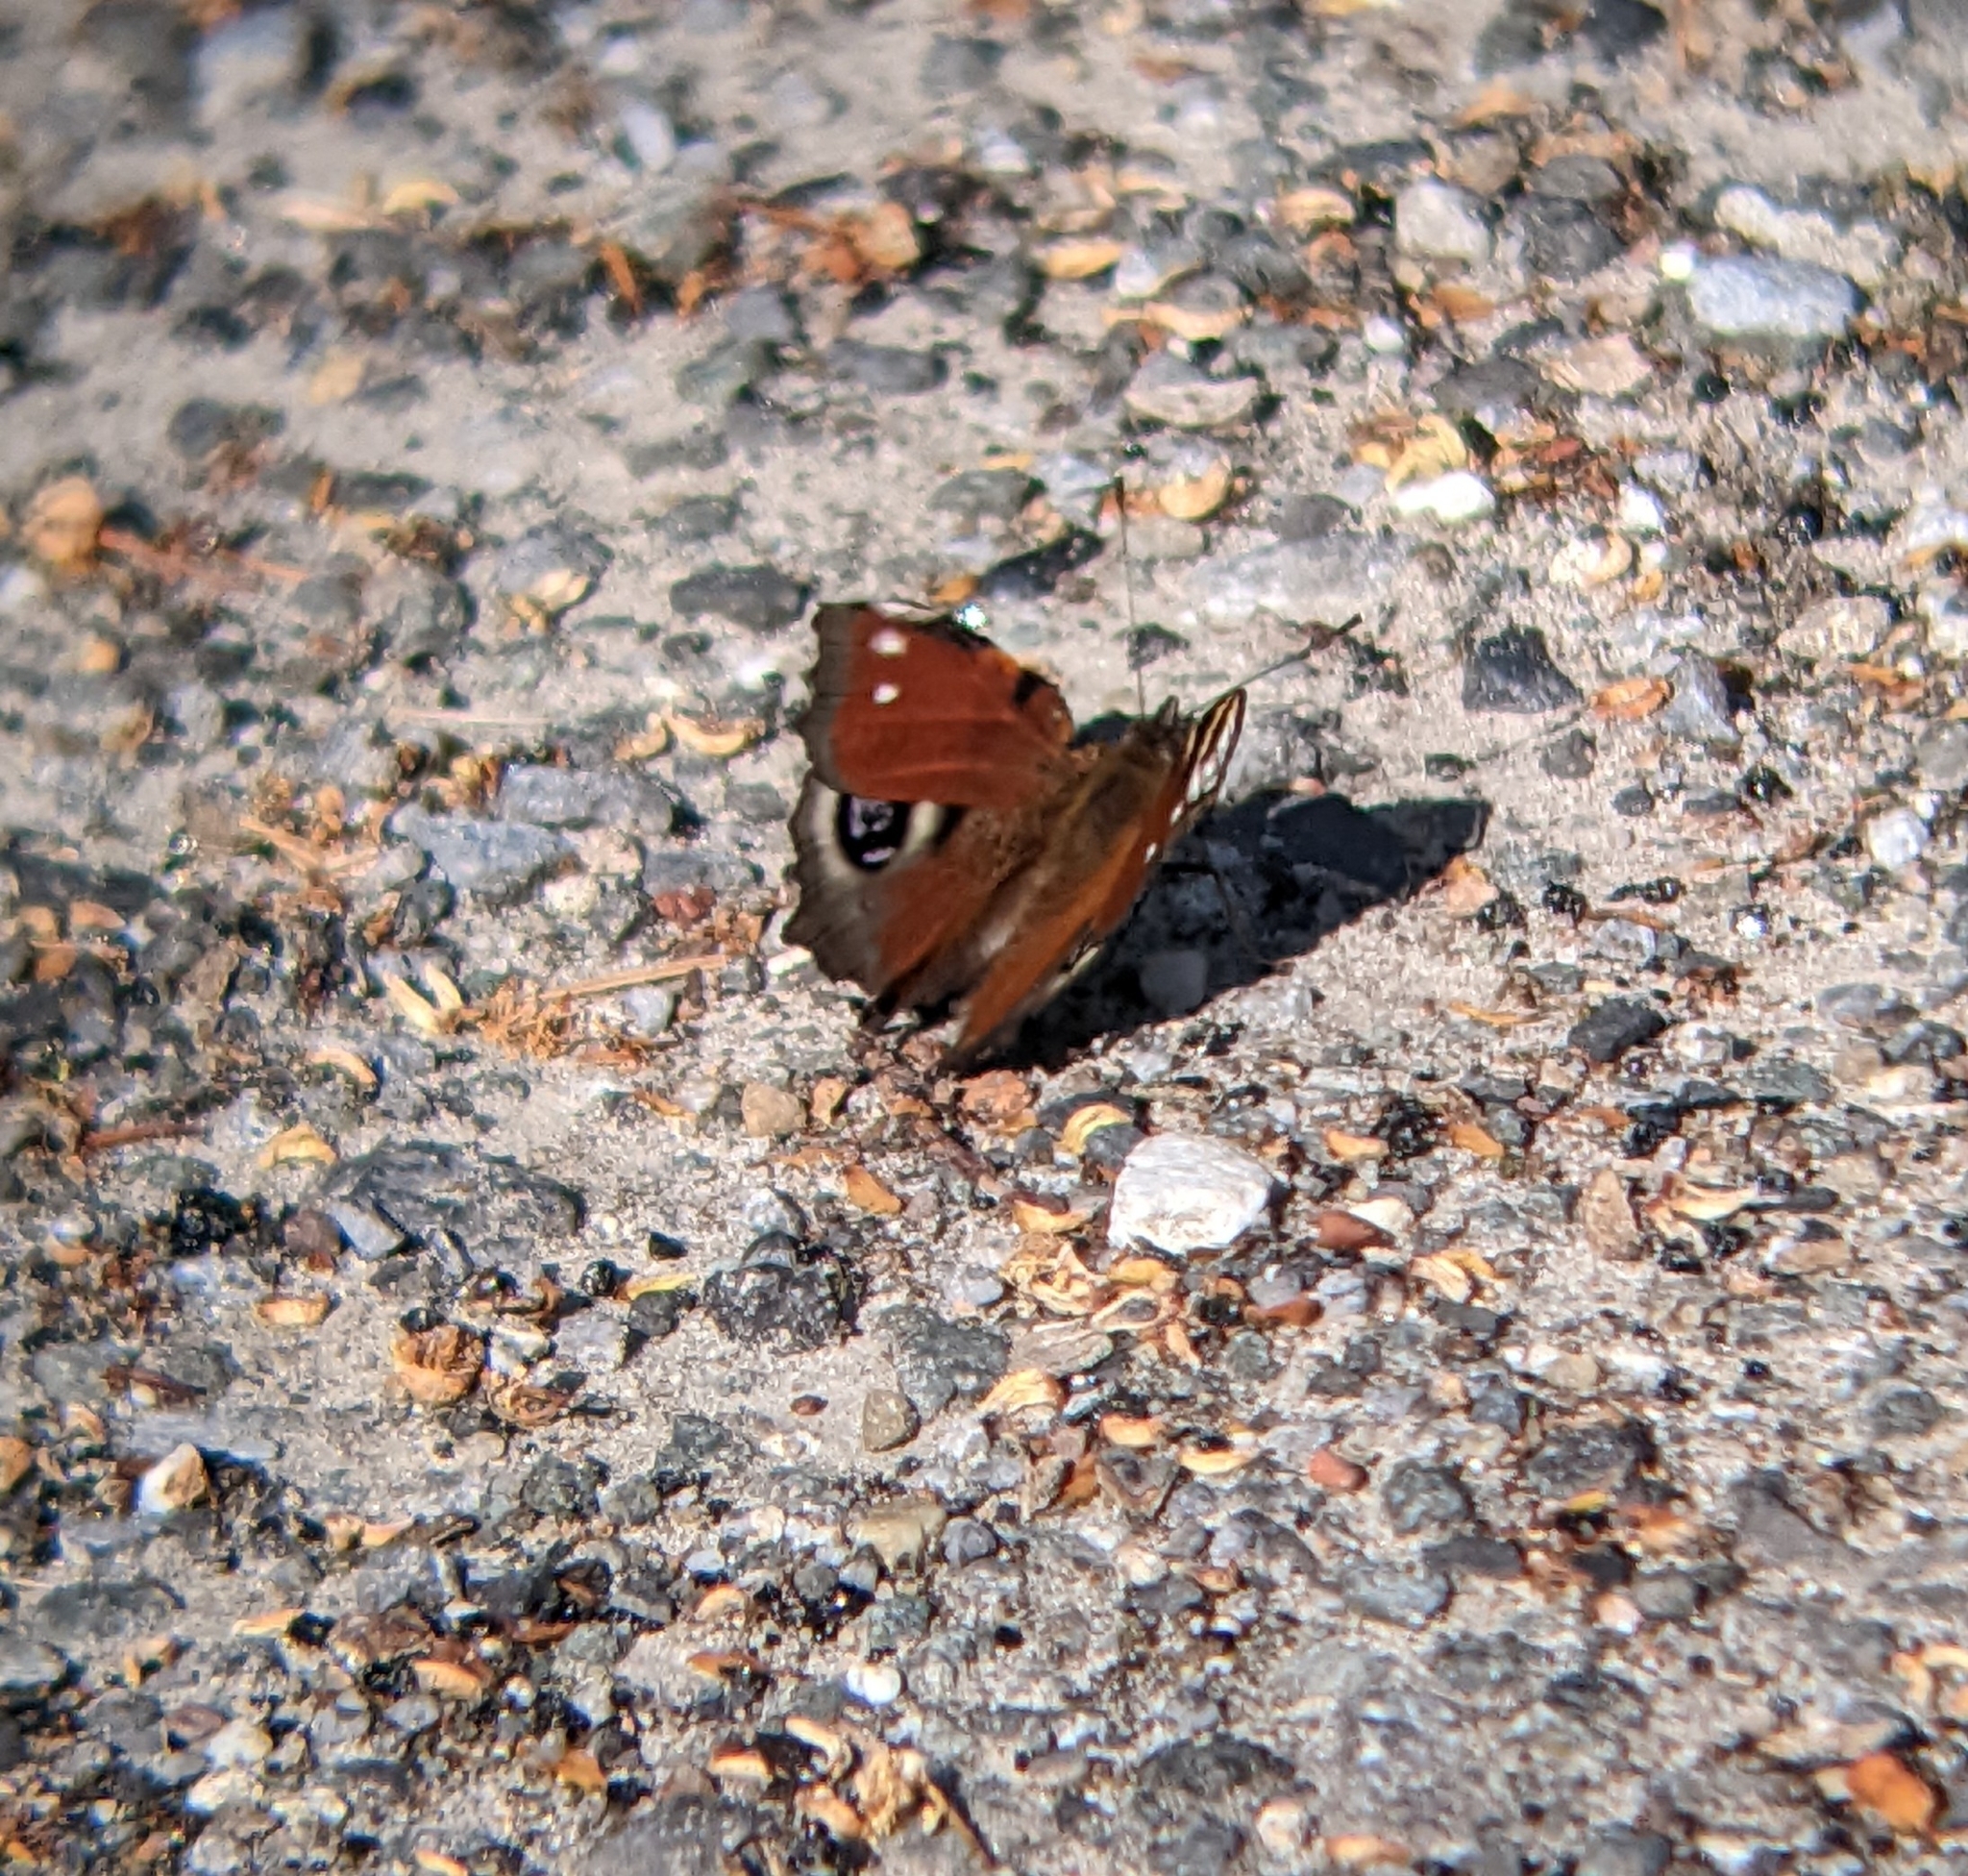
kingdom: Animalia
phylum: Arthropoda
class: Insecta
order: Lepidoptera
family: Nymphalidae
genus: Aglais
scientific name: Aglais io
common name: Peacock
